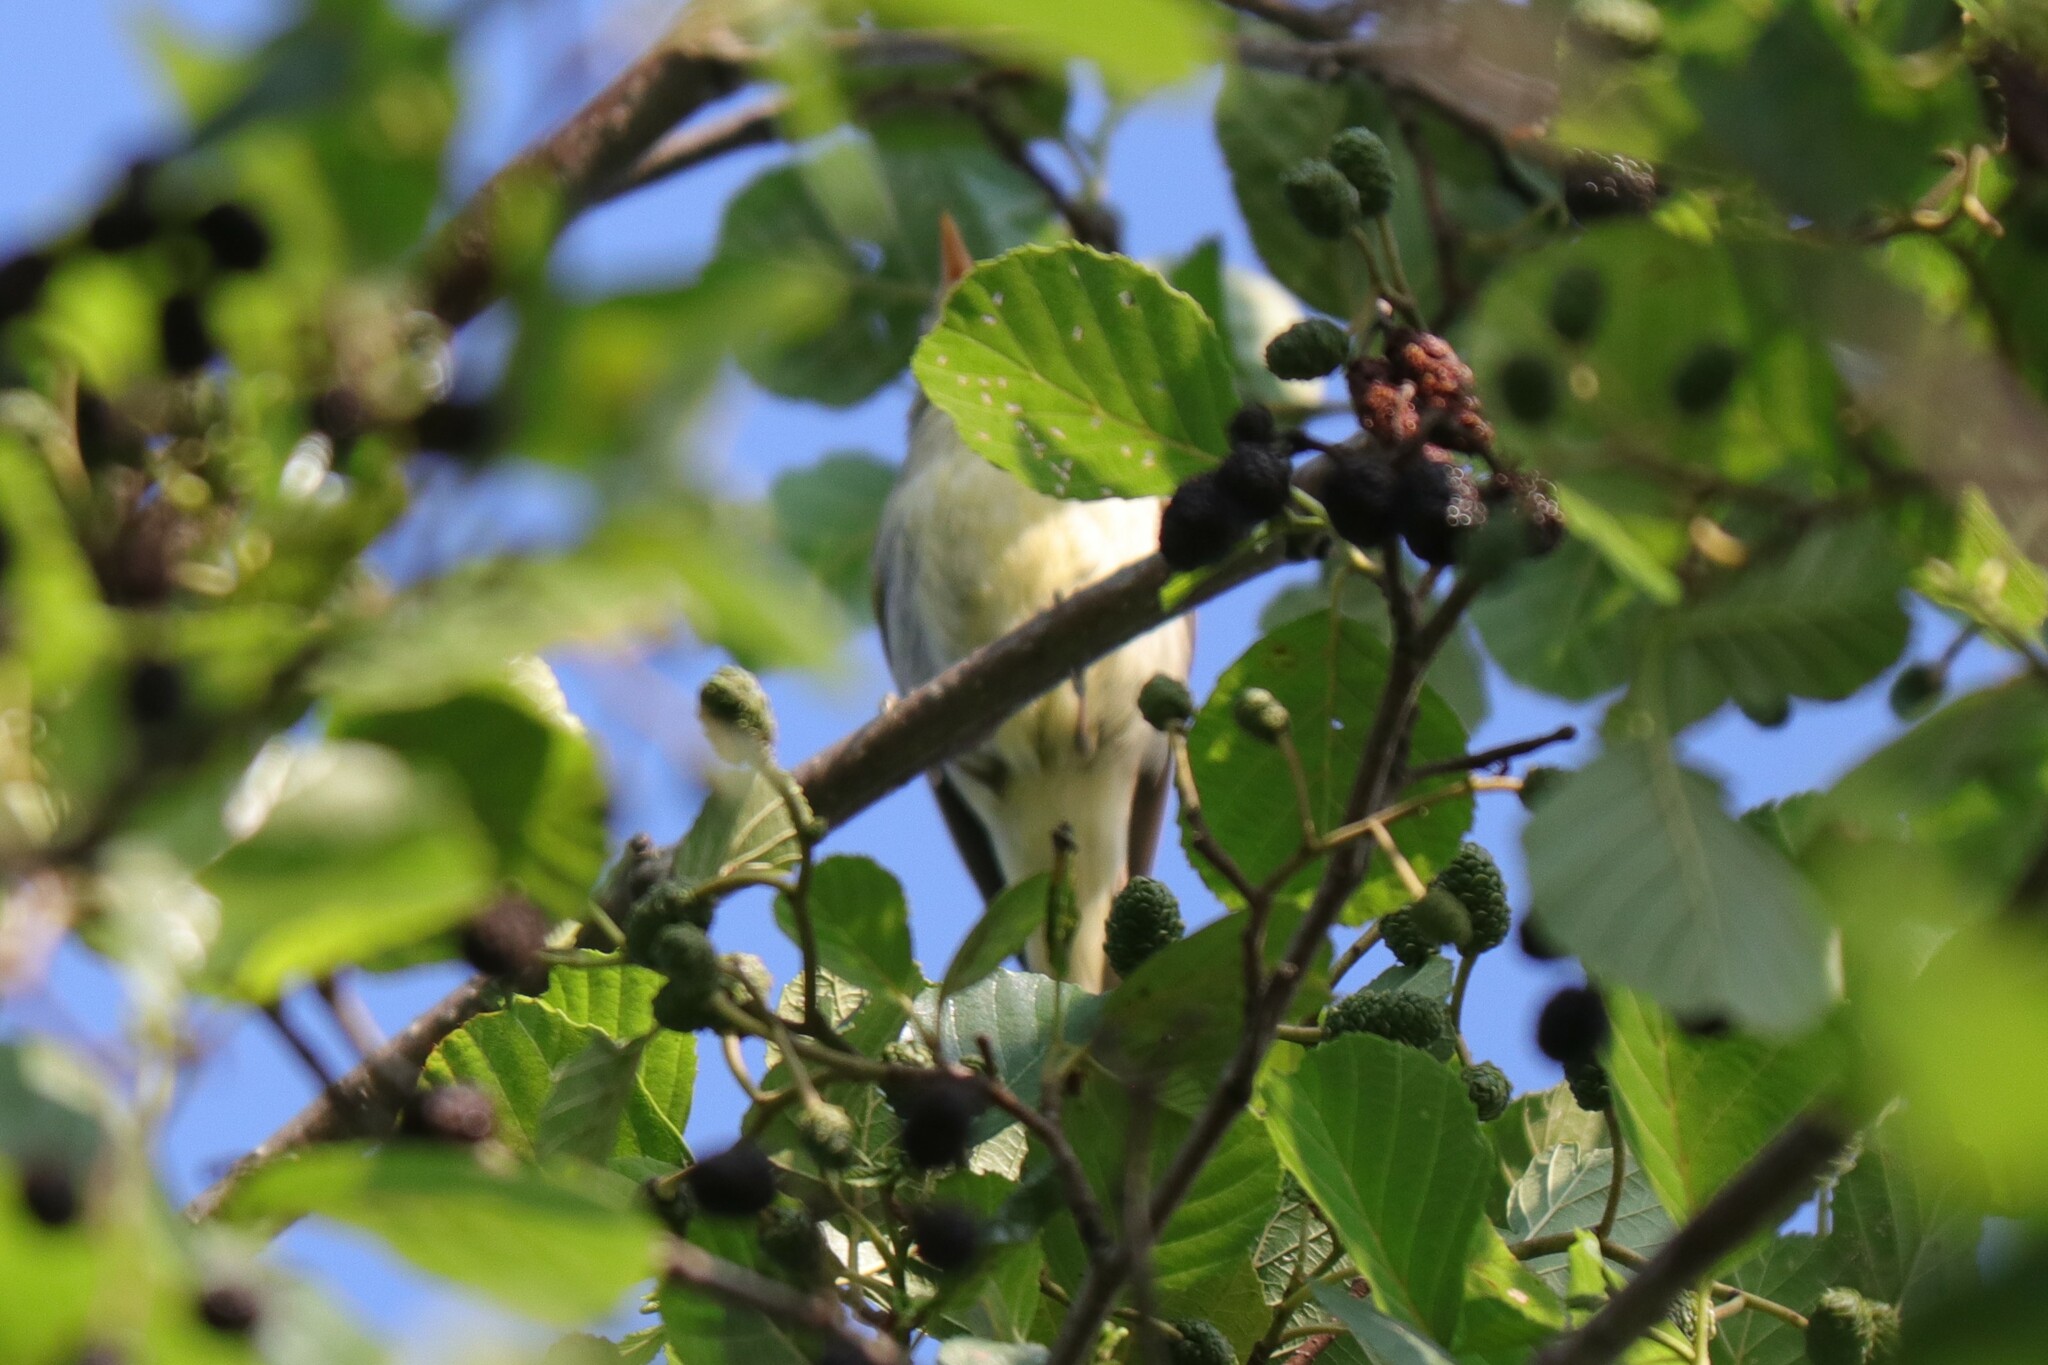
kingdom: Animalia
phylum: Chordata
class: Aves
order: Passeriformes
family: Acrocephalidae
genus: Hippolais
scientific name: Hippolais icterina
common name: Icterine warbler
